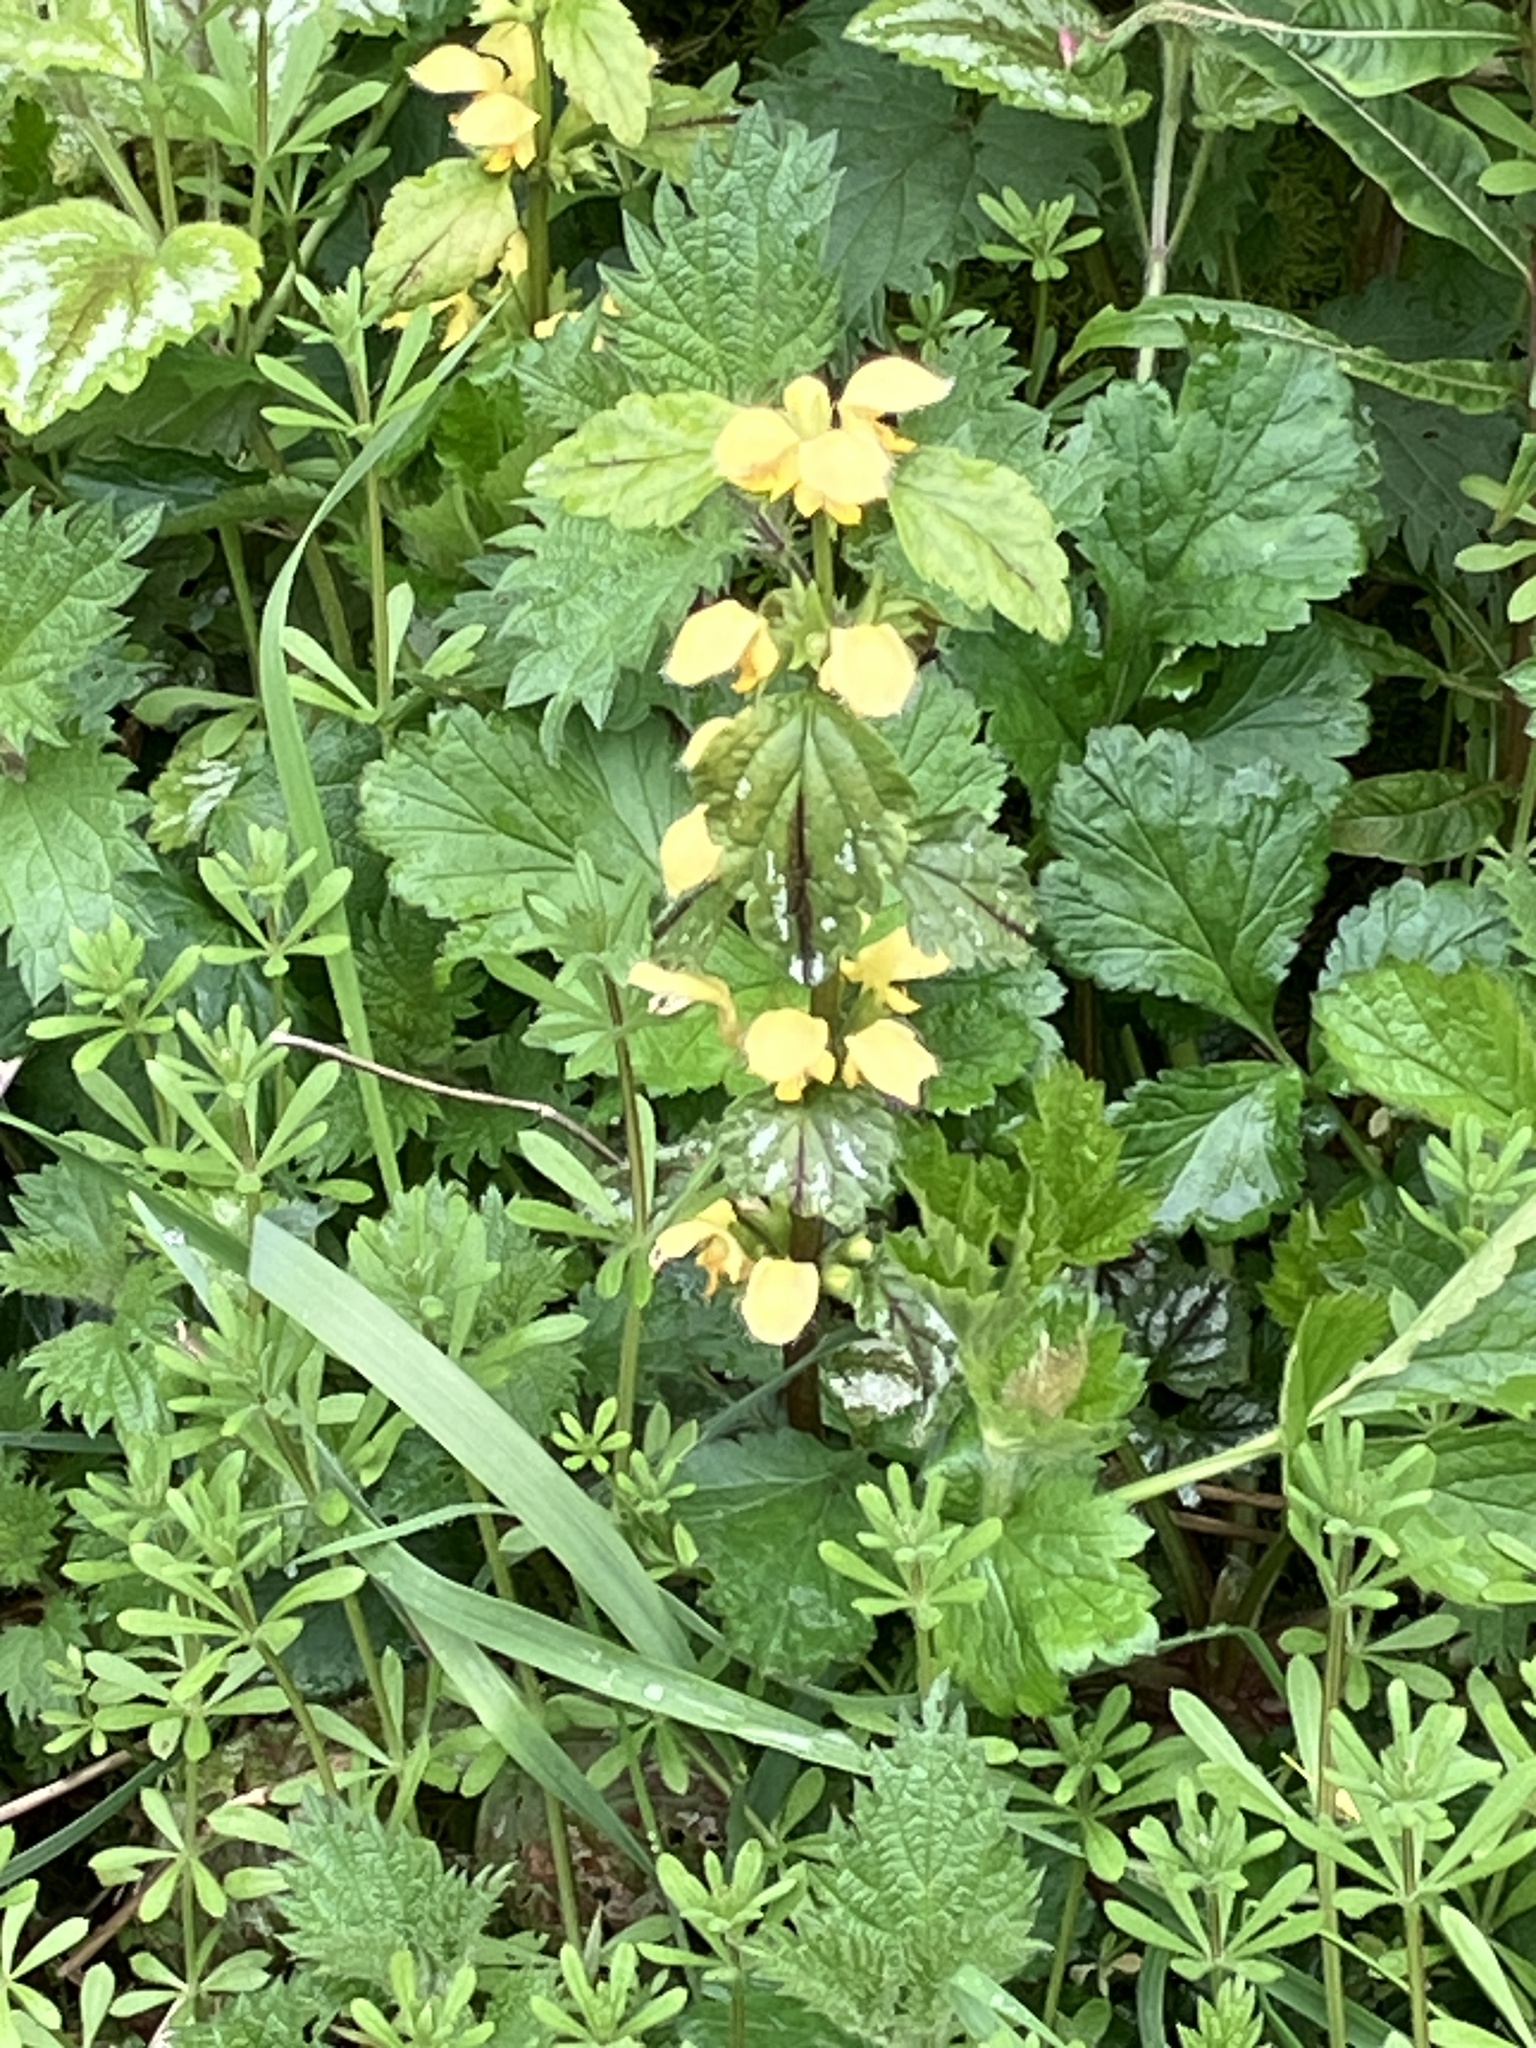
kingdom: Plantae
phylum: Tracheophyta
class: Magnoliopsida
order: Lamiales
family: Lamiaceae
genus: Lamium
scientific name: Lamium galeobdolon
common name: Yellow archangel
